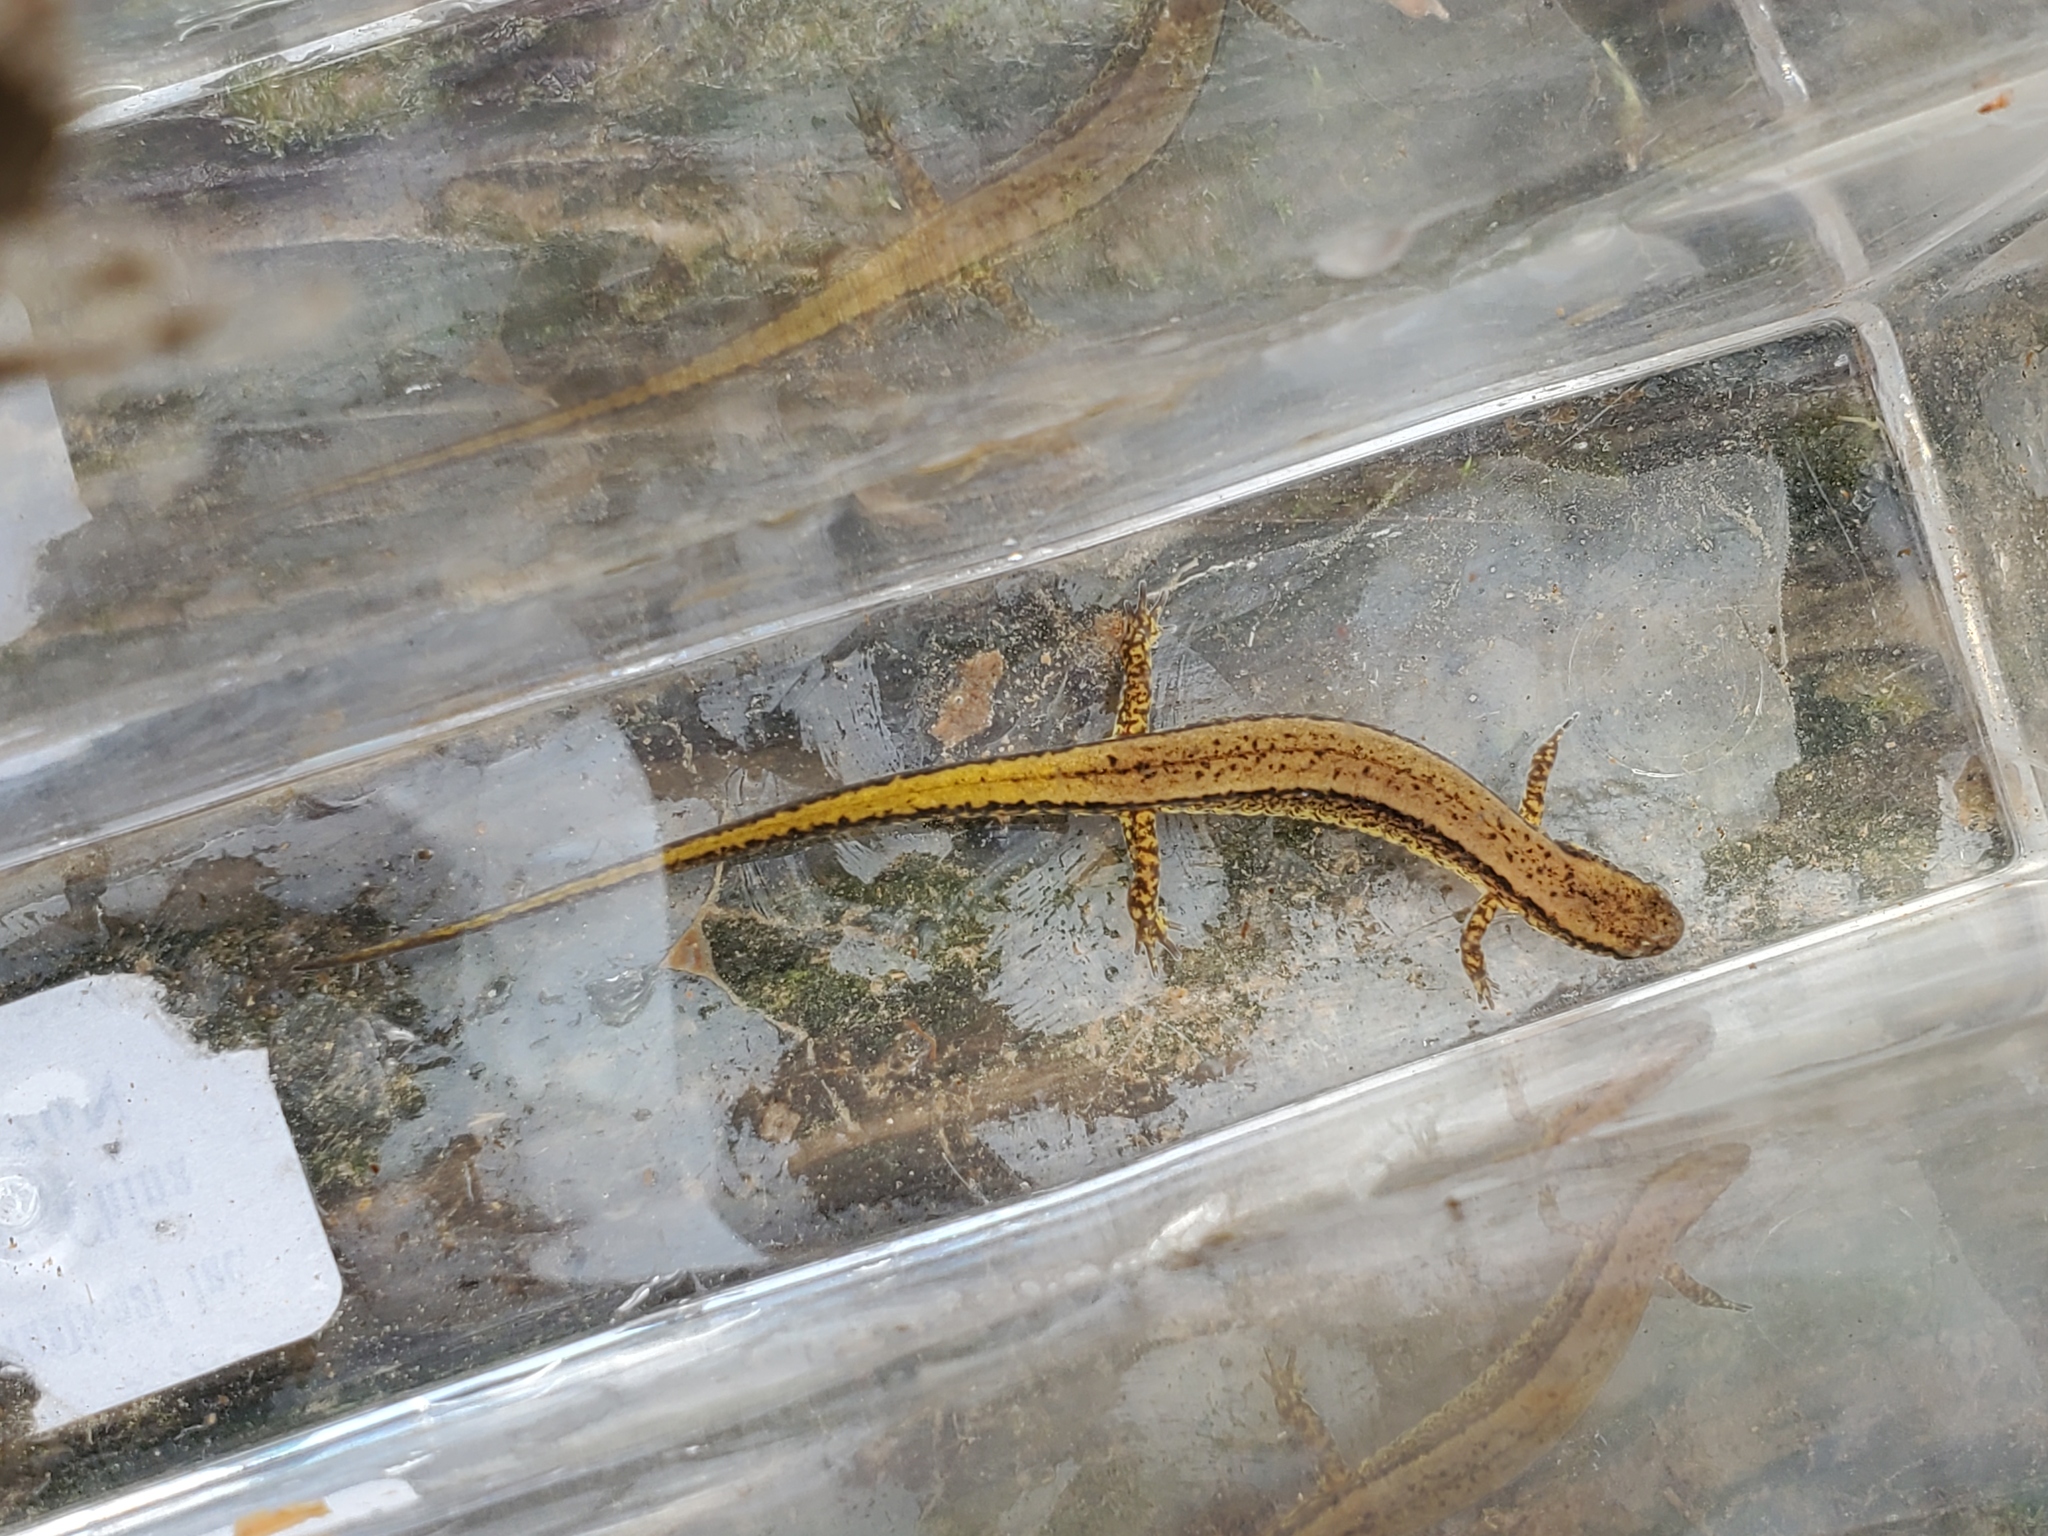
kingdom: Animalia
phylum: Chordata
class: Amphibia
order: Caudata
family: Plethodontidae
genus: Eurycea
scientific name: Eurycea cirrigera
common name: Southern two-lined salamander
